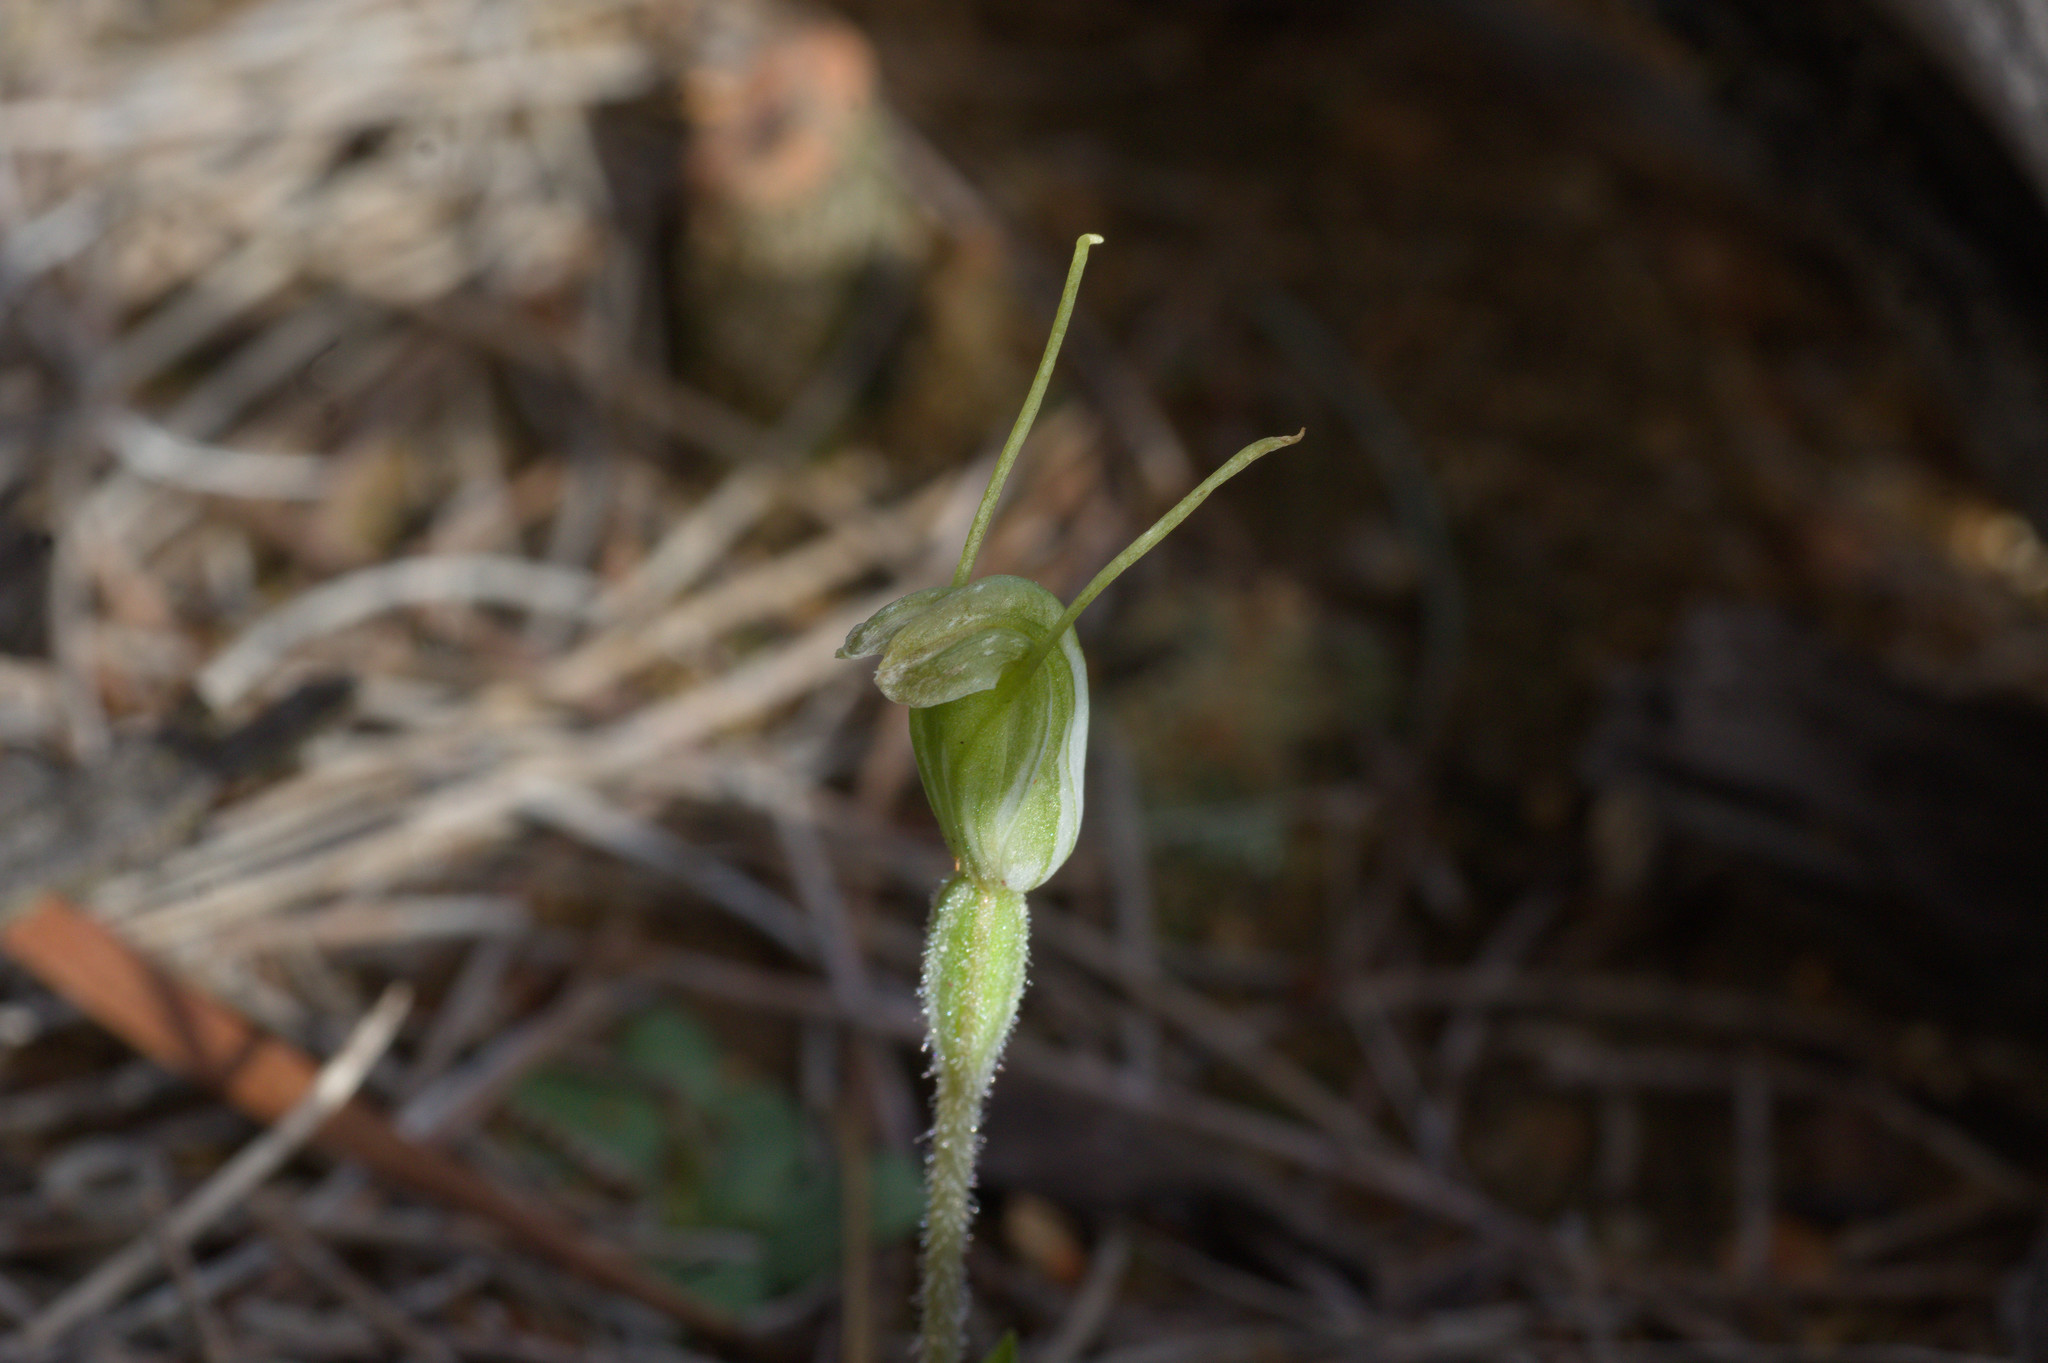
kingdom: Plantae
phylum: Tracheophyta
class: Liliopsida
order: Asparagales
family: Orchidaceae
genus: Pterostylis
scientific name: Pterostylis setulosa
